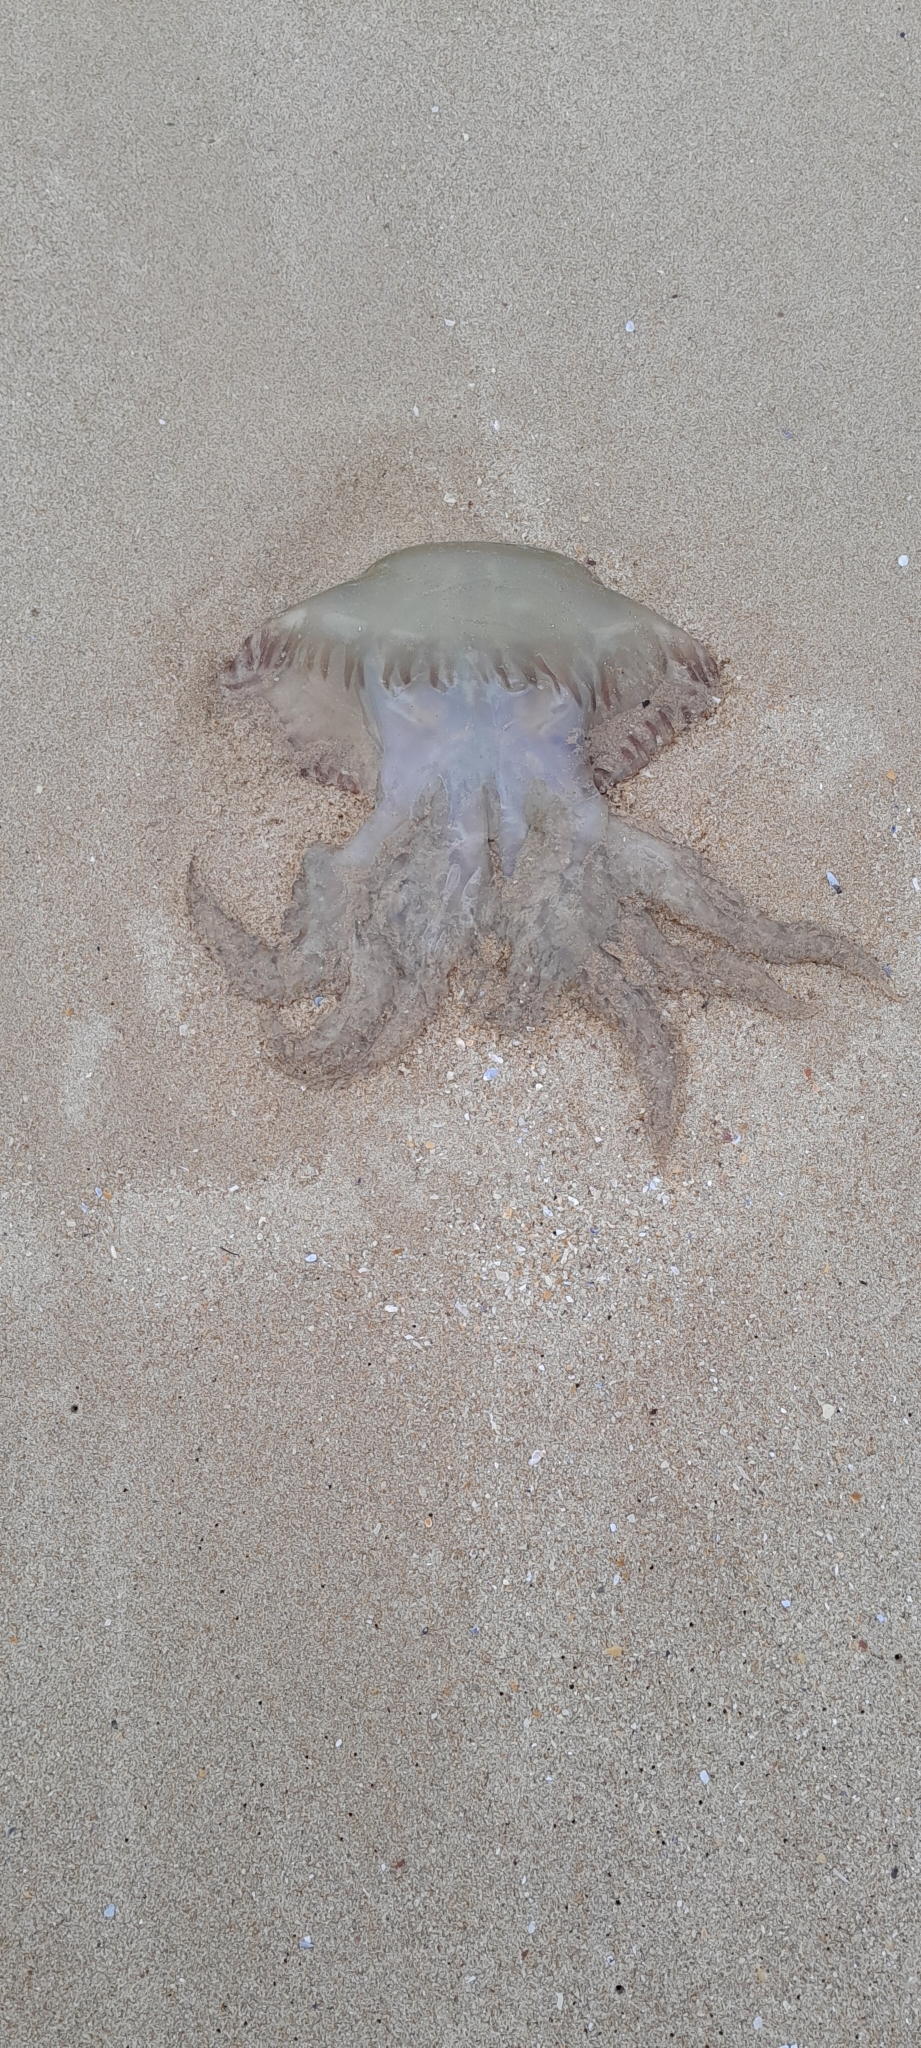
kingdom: Animalia
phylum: Cnidaria
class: Scyphozoa
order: Rhizostomeae
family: Catostylidae
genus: Catostylus
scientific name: Catostylus tagi
